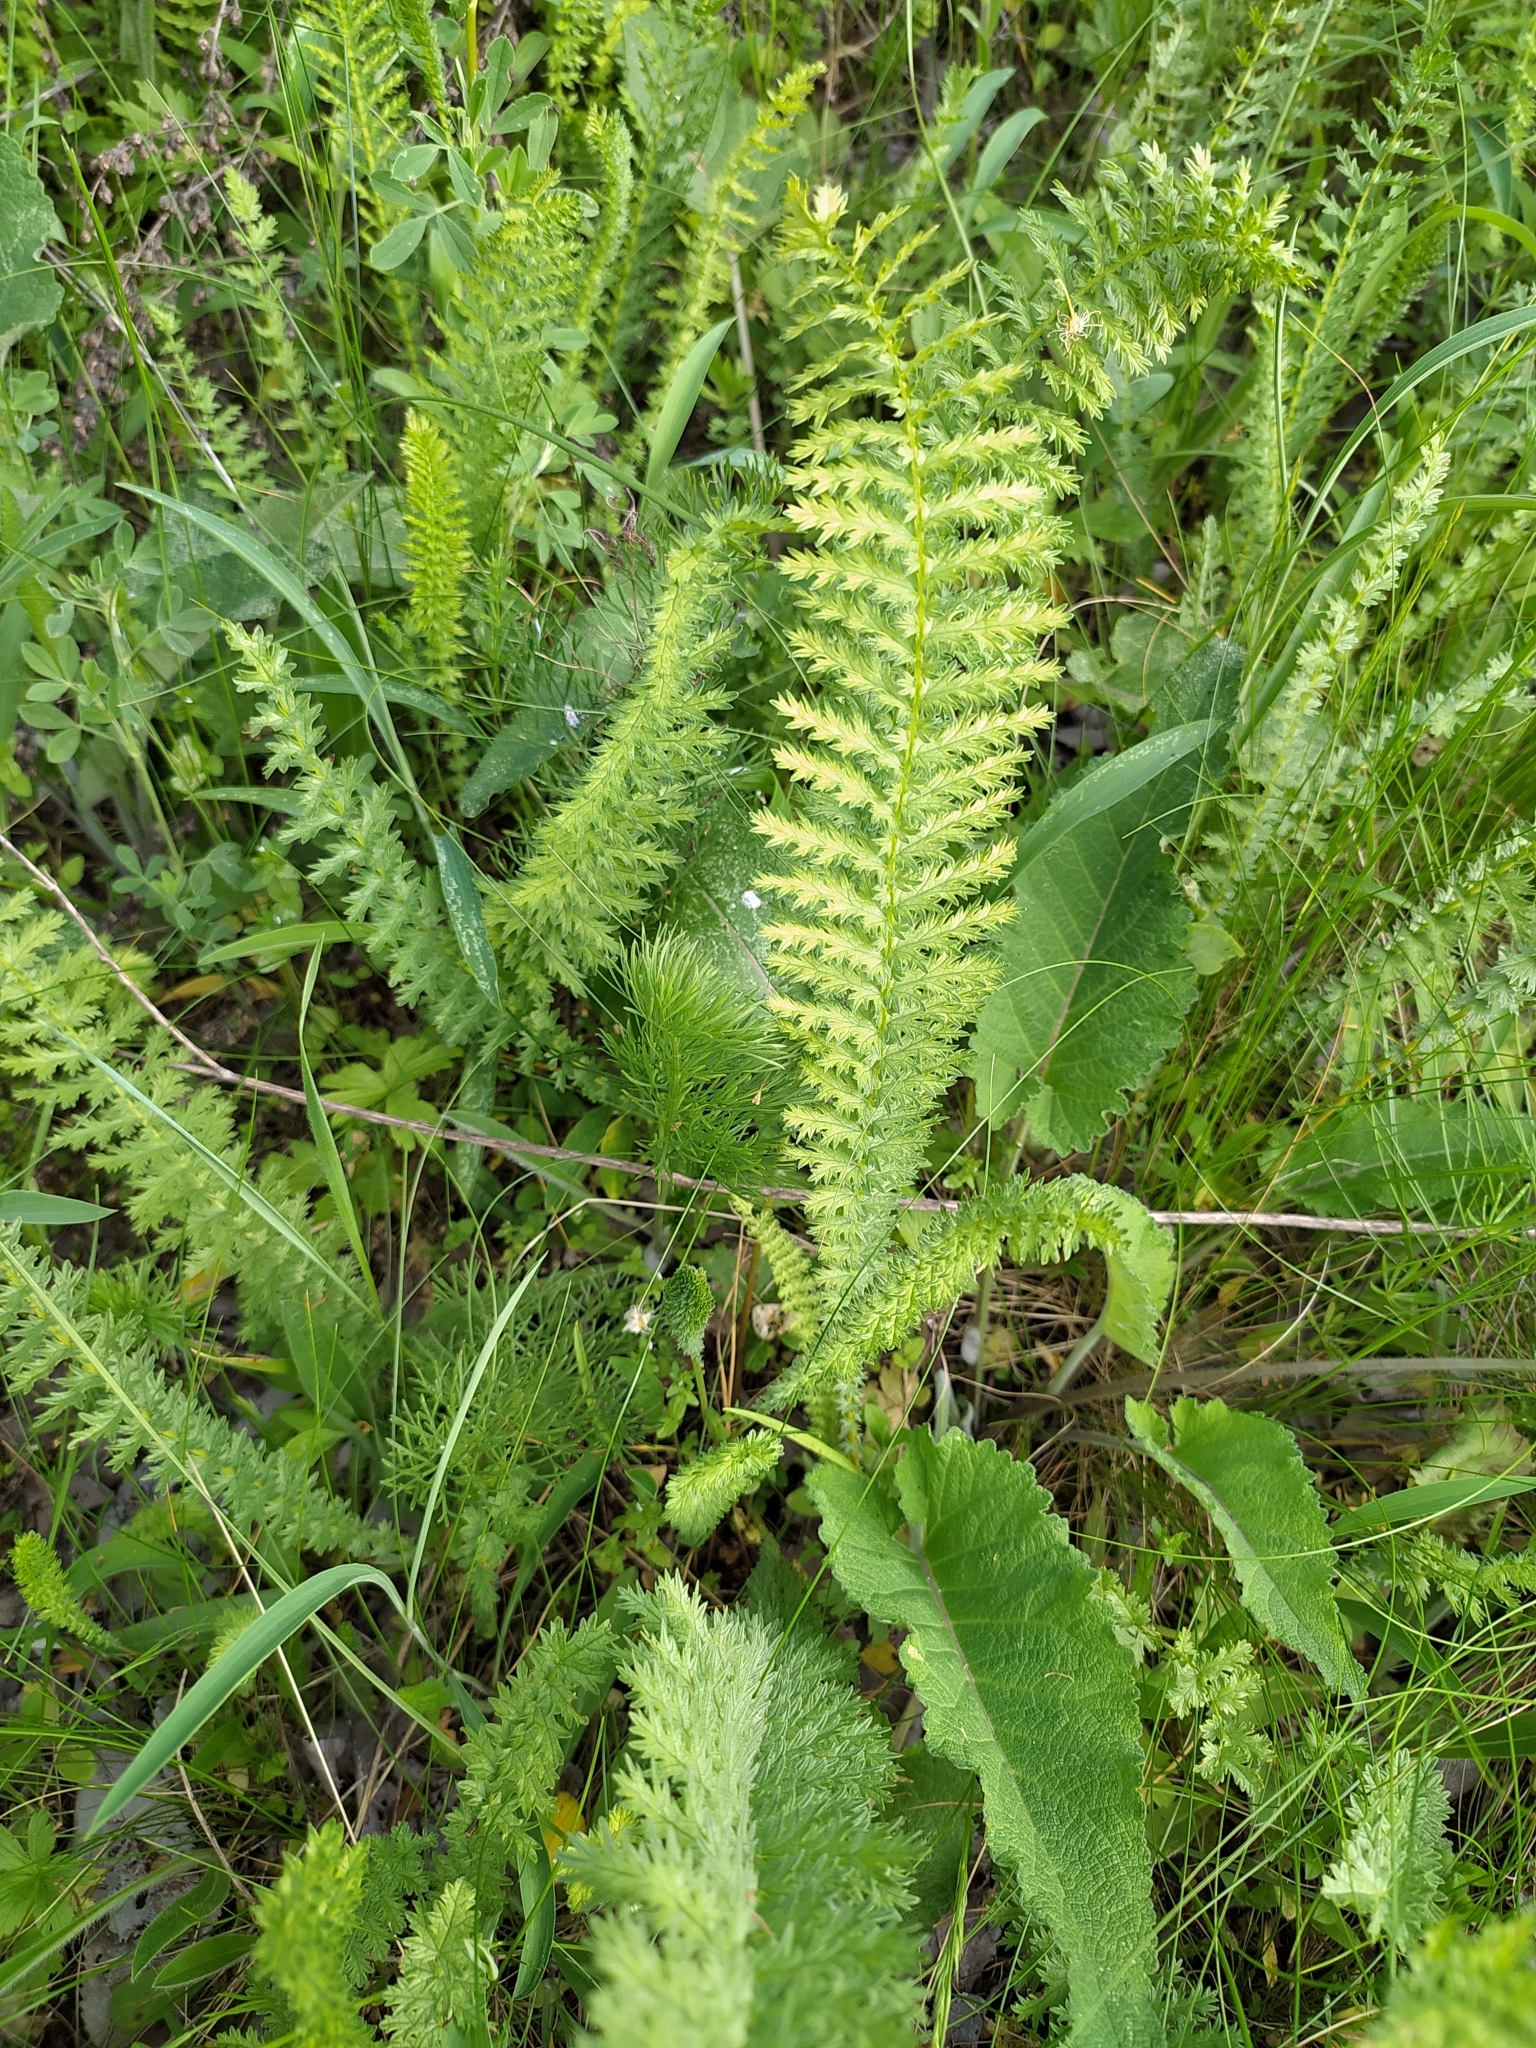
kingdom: Plantae
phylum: Tracheophyta
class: Magnoliopsida
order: Rosales
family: Rosaceae
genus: Filipendula
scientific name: Filipendula vulgaris
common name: Dropwort
